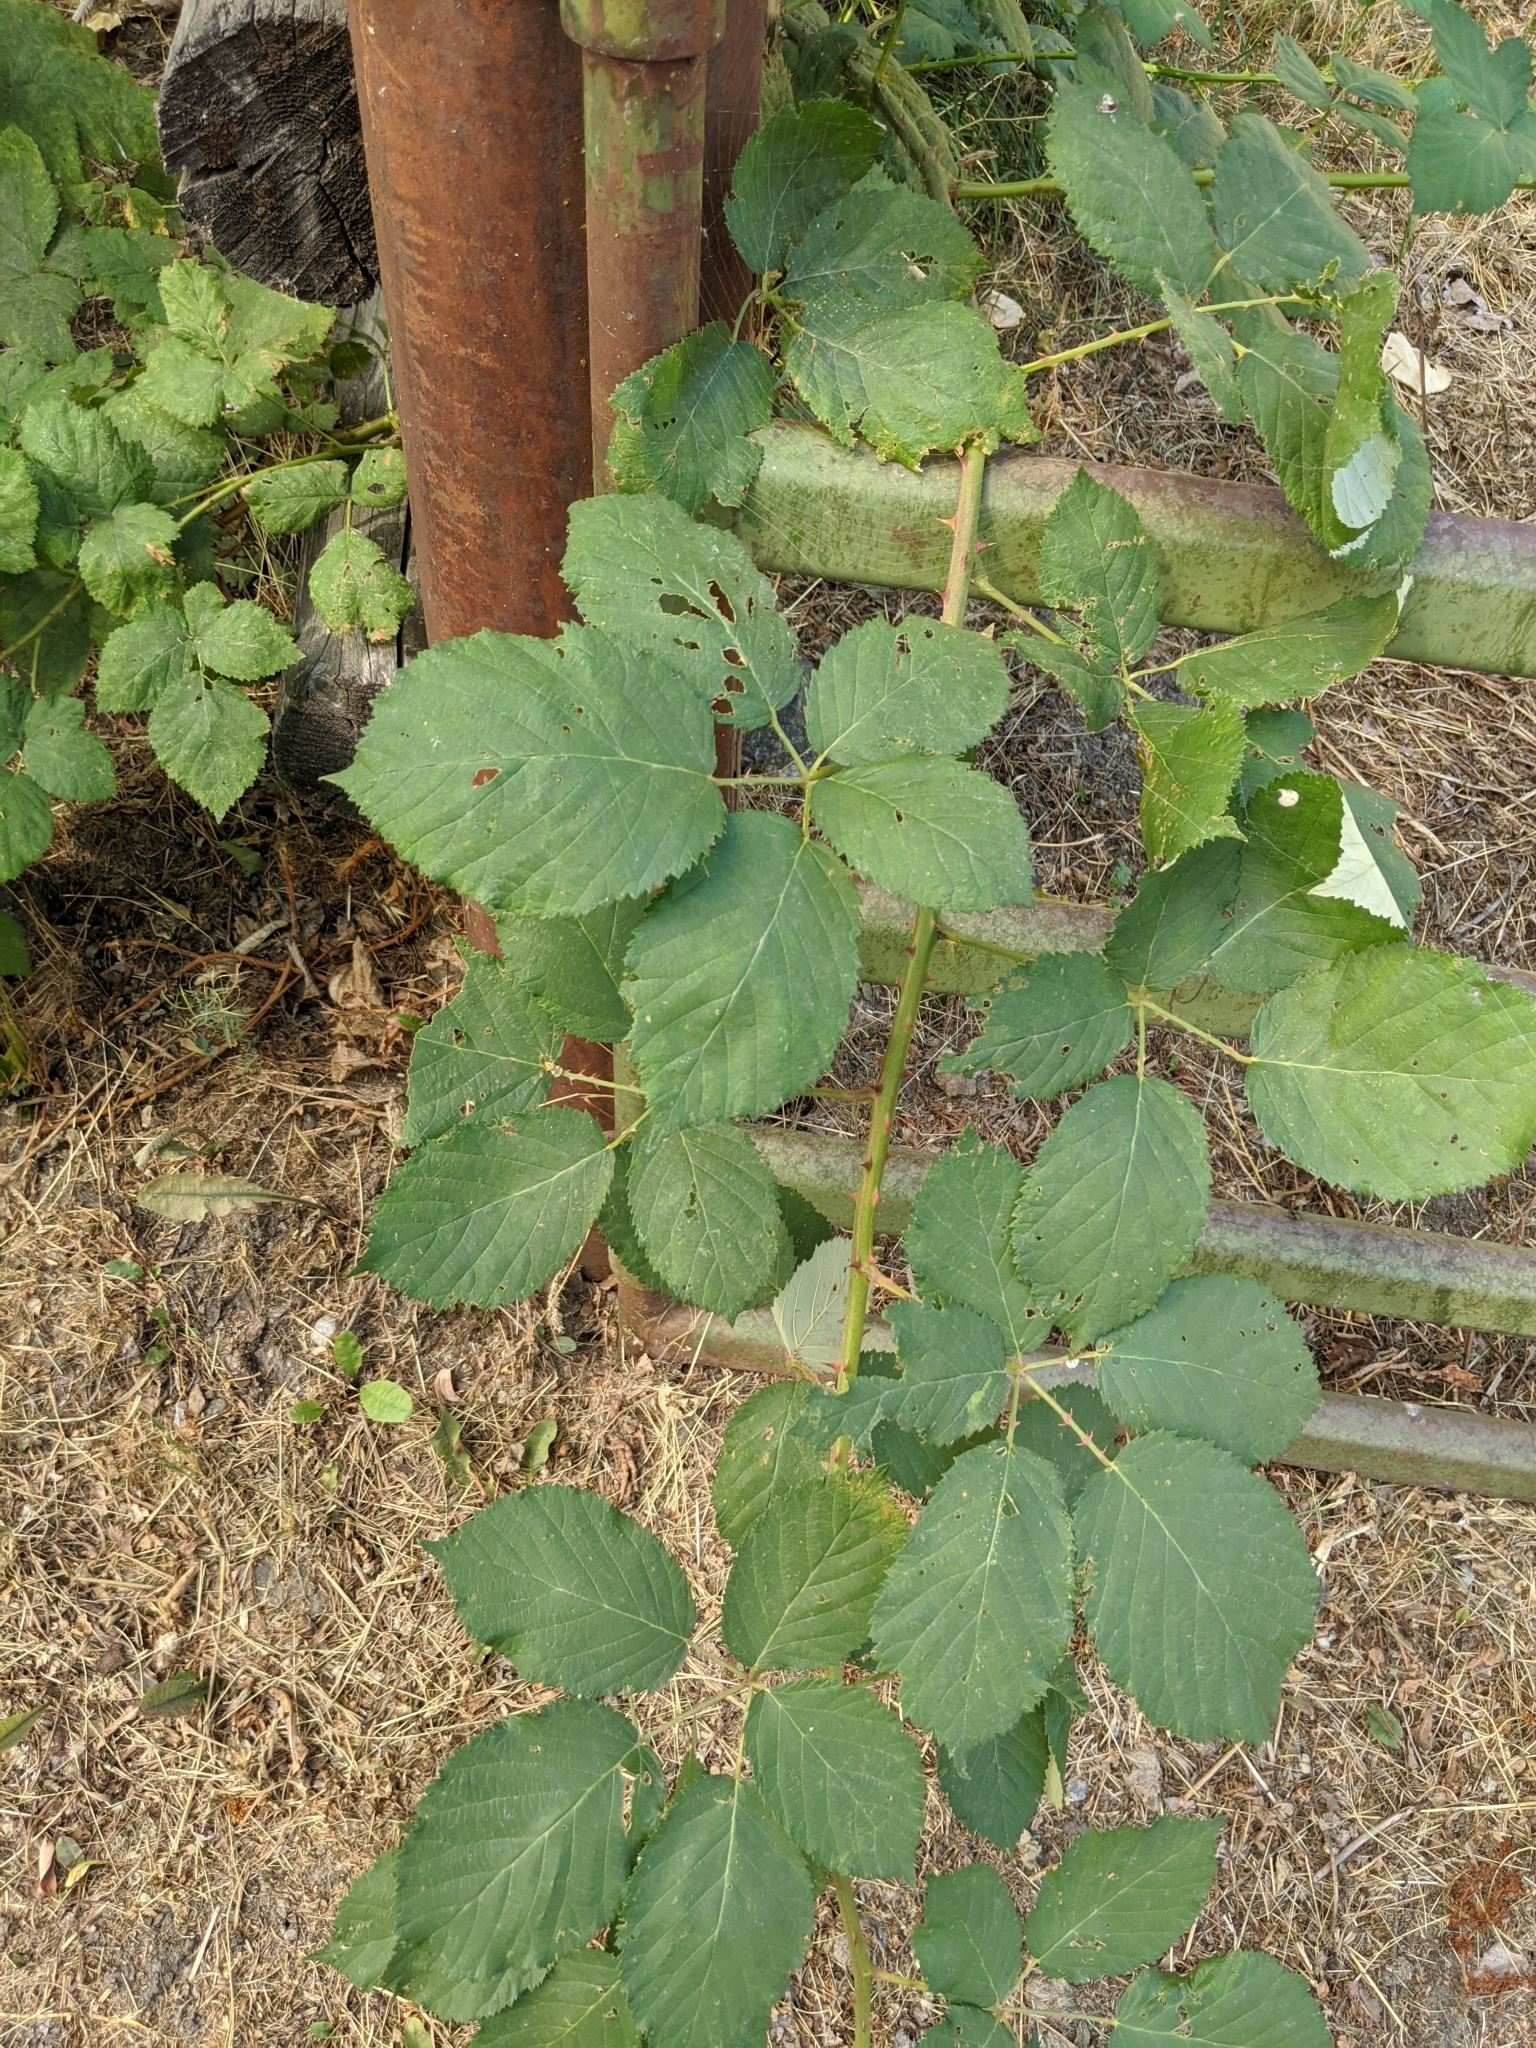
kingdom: Plantae
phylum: Tracheophyta
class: Magnoliopsida
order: Rosales
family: Rosaceae
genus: Rubus
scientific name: Rubus bifrons
